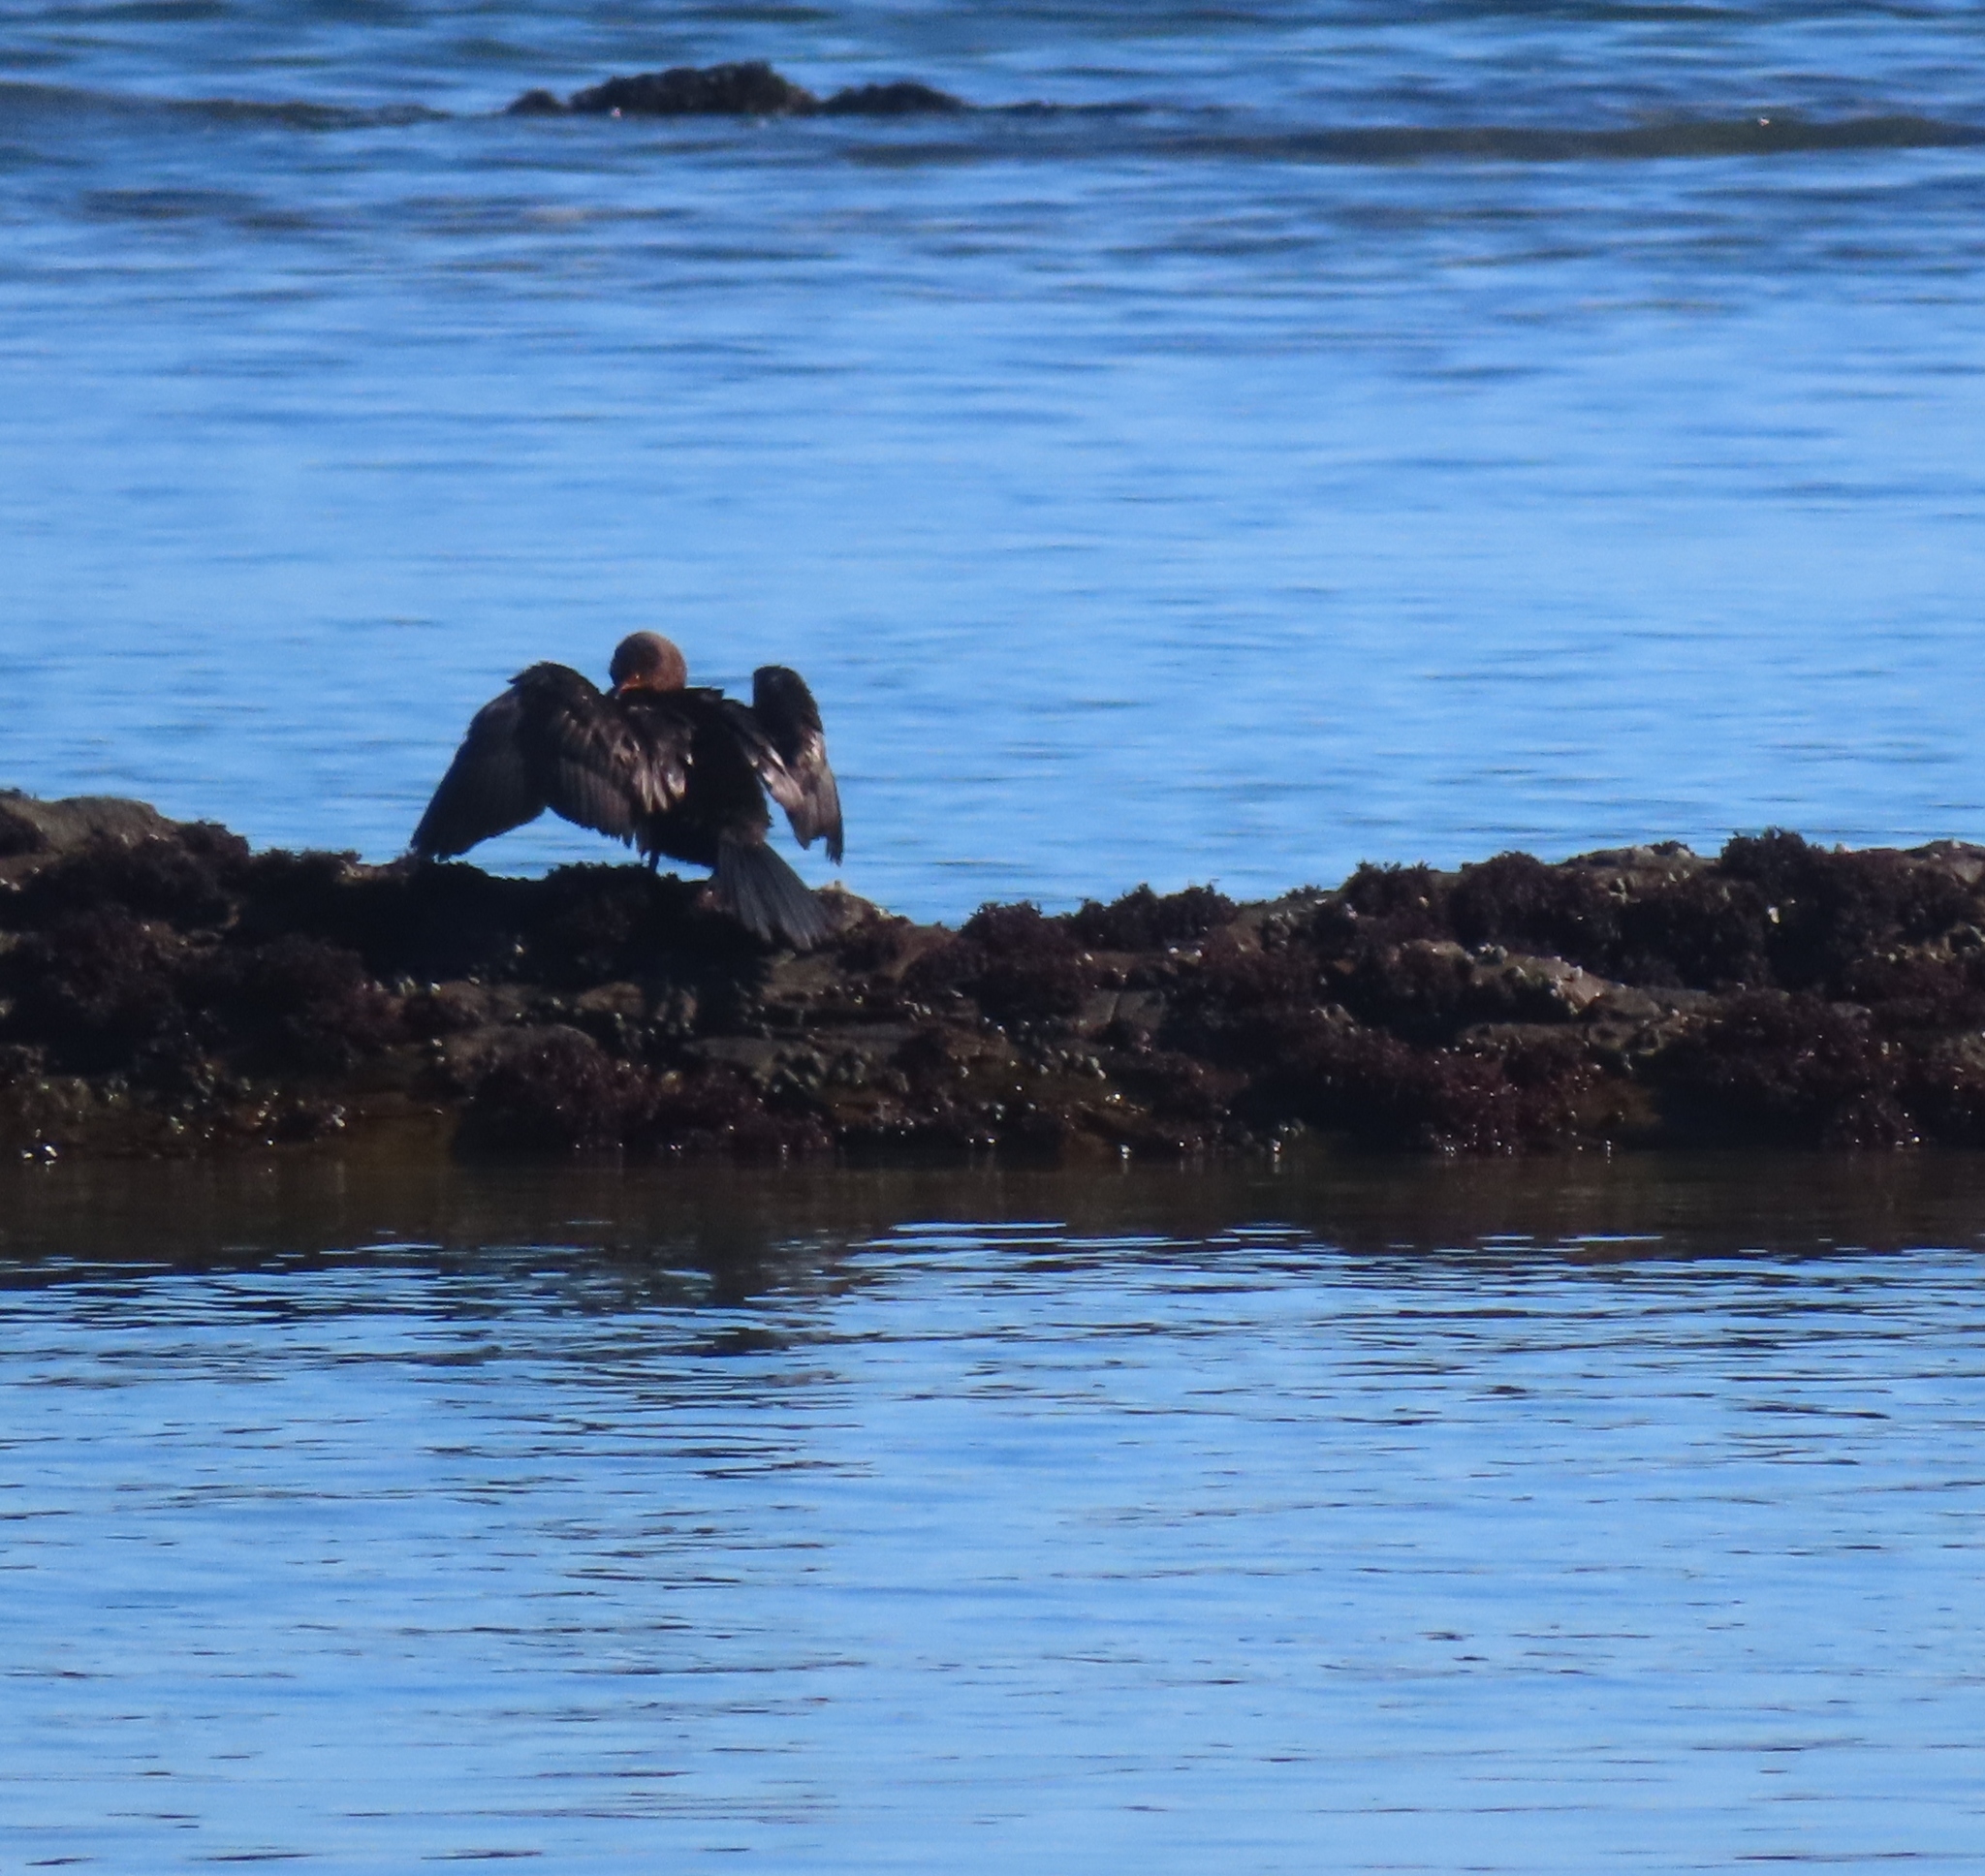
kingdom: Animalia
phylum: Chordata
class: Aves
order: Suliformes
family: Phalacrocoracidae
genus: Microcarbo
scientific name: Microcarbo coronatus
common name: Crowned cormorant
